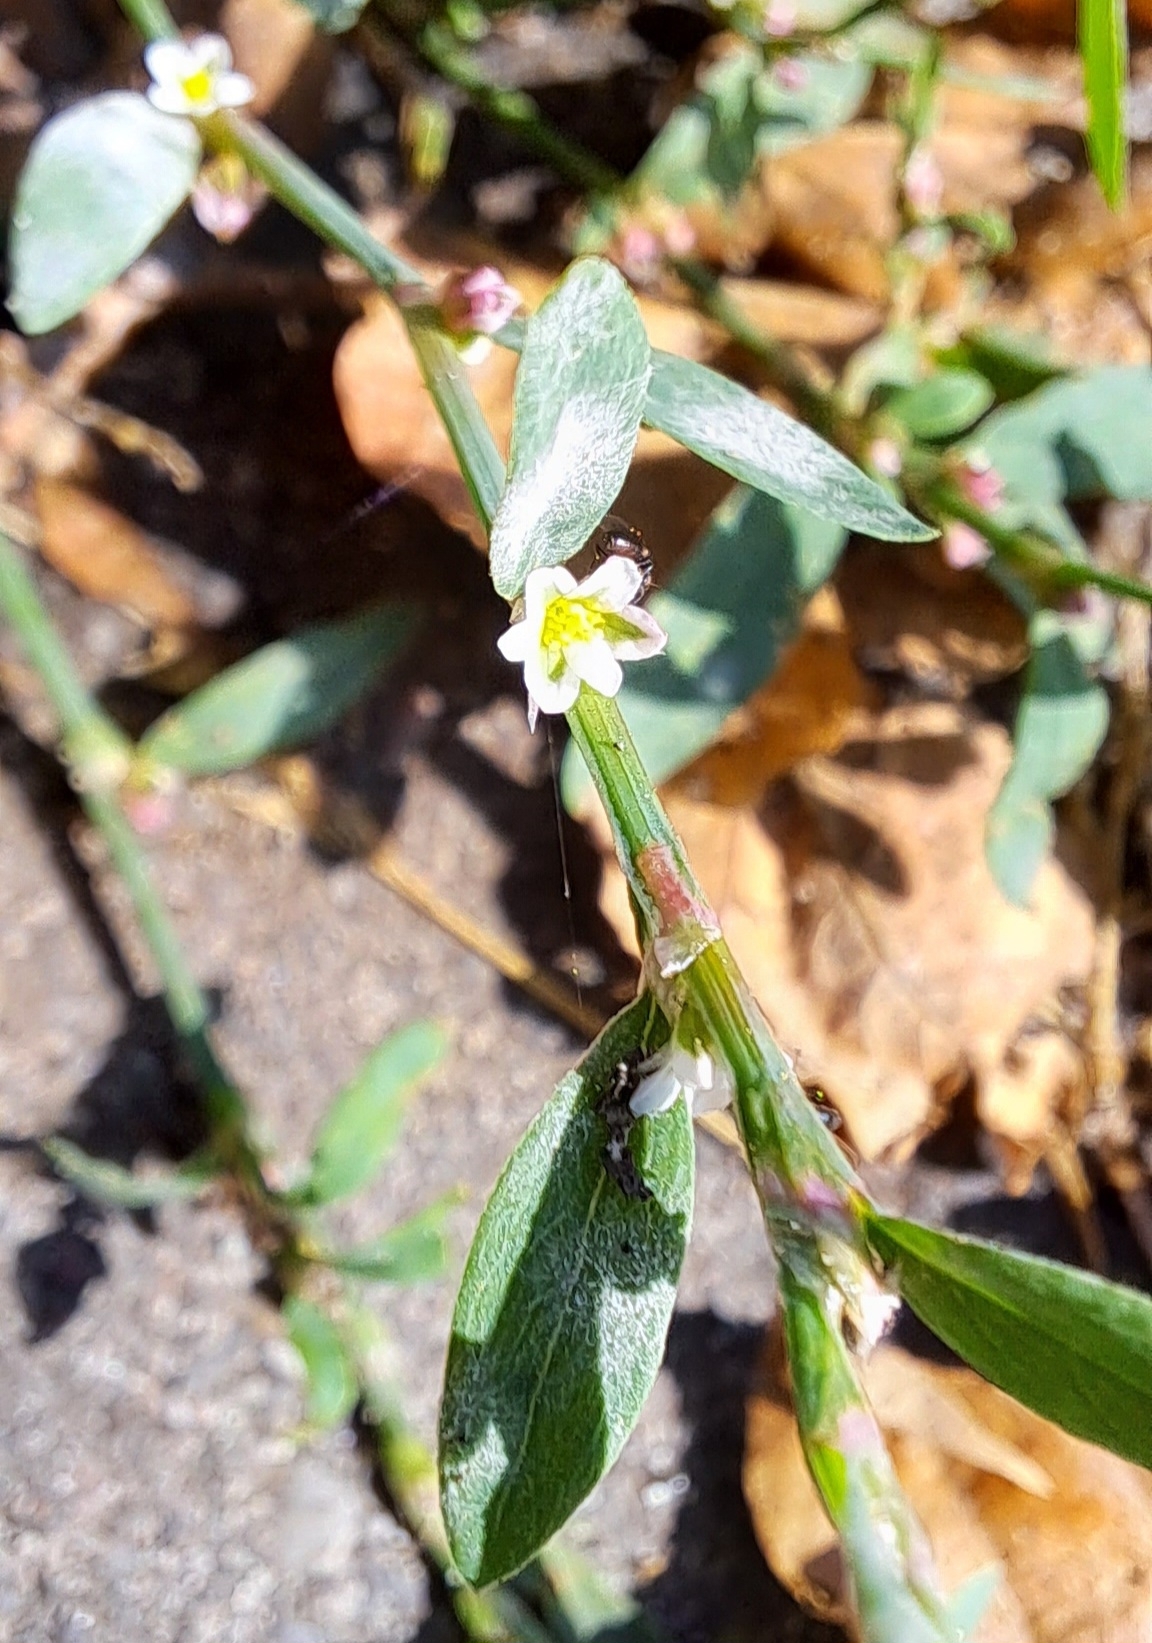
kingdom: Plantae
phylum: Tracheophyta
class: Magnoliopsida
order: Caryophyllales
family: Polygonaceae
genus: Polygonum
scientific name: Polygonum aviculare
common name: Prostrate knotweed
